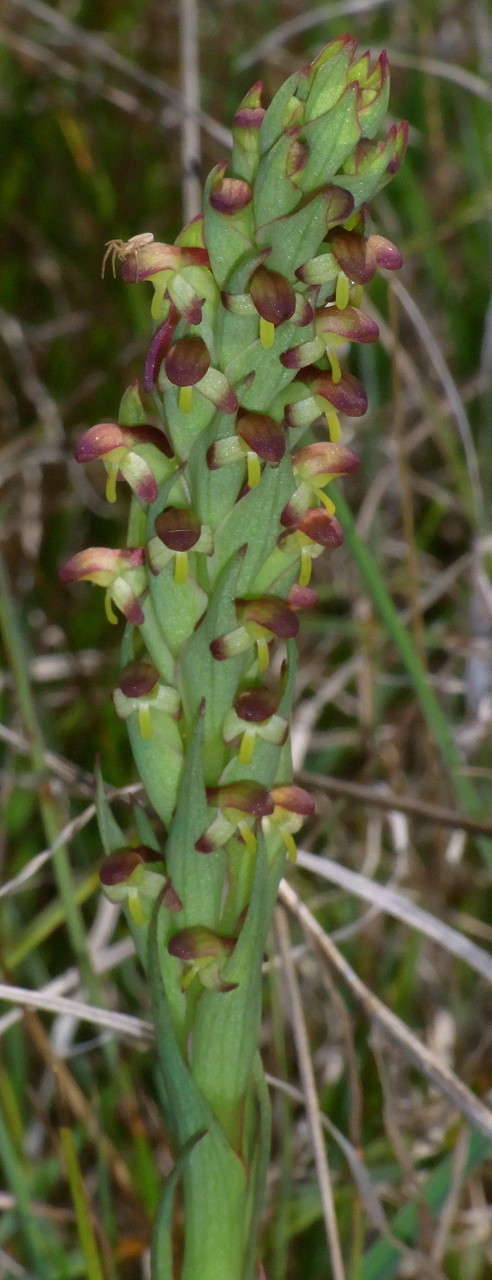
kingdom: Plantae
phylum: Tracheophyta
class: Liliopsida
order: Asparagales
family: Orchidaceae
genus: Disa
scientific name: Disa bracteata
